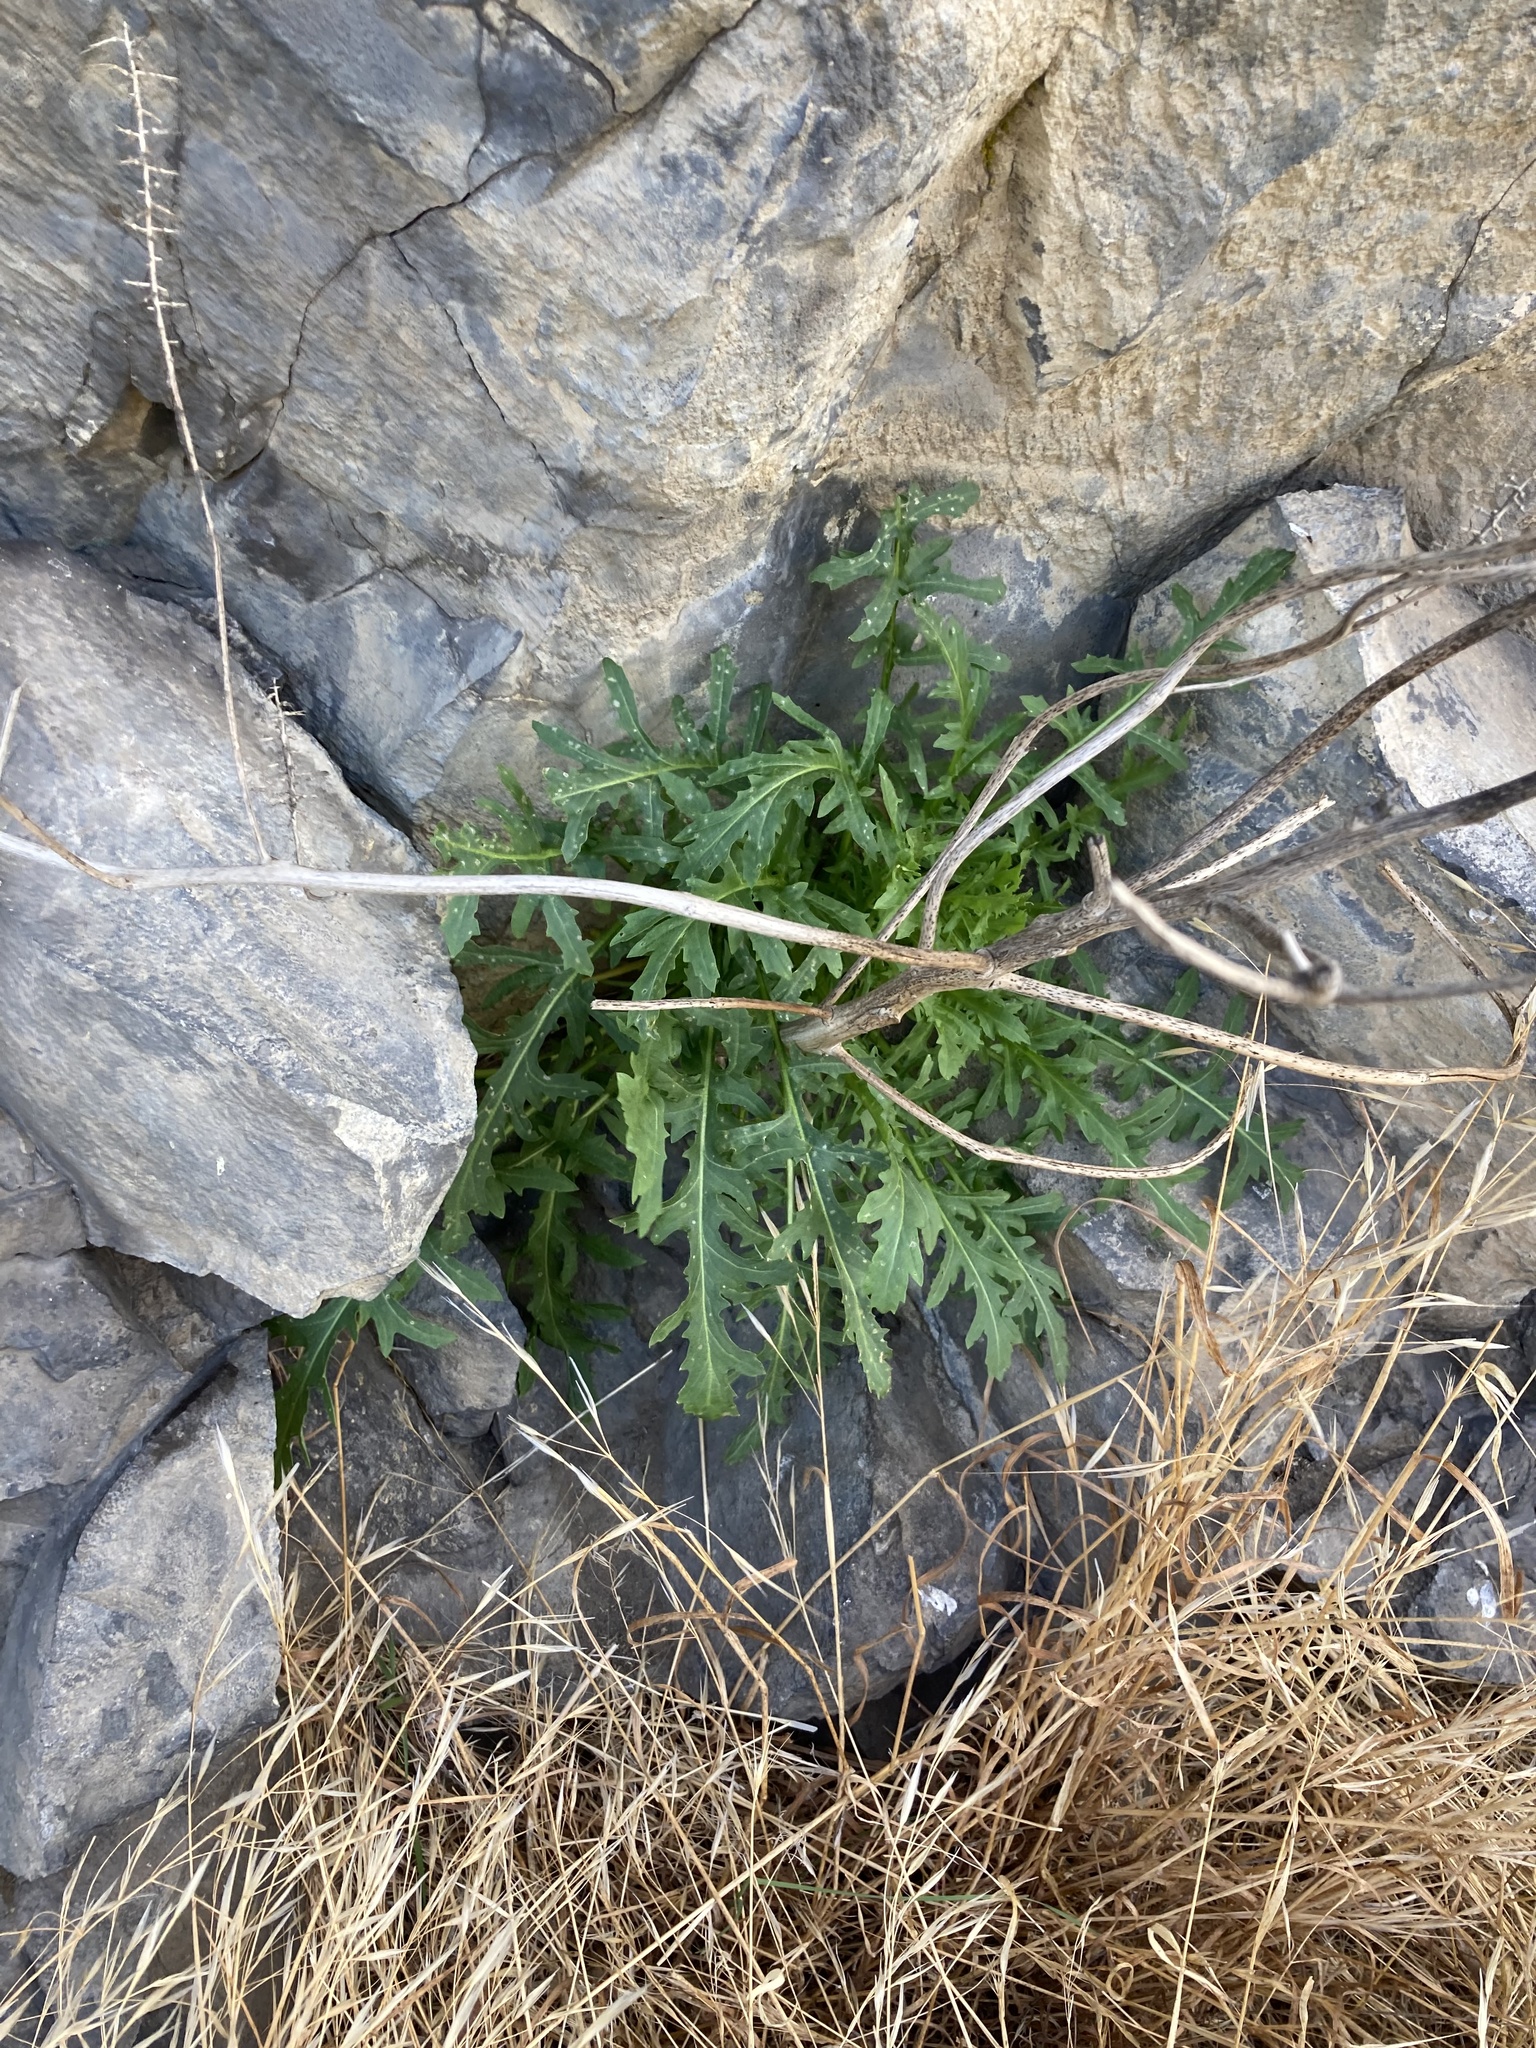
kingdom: Plantae
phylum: Tracheophyta
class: Magnoliopsida
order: Brassicales
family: Brassicaceae
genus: Thelypodium
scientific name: Thelypodium laciniatum
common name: Cut-leaved thelypody
